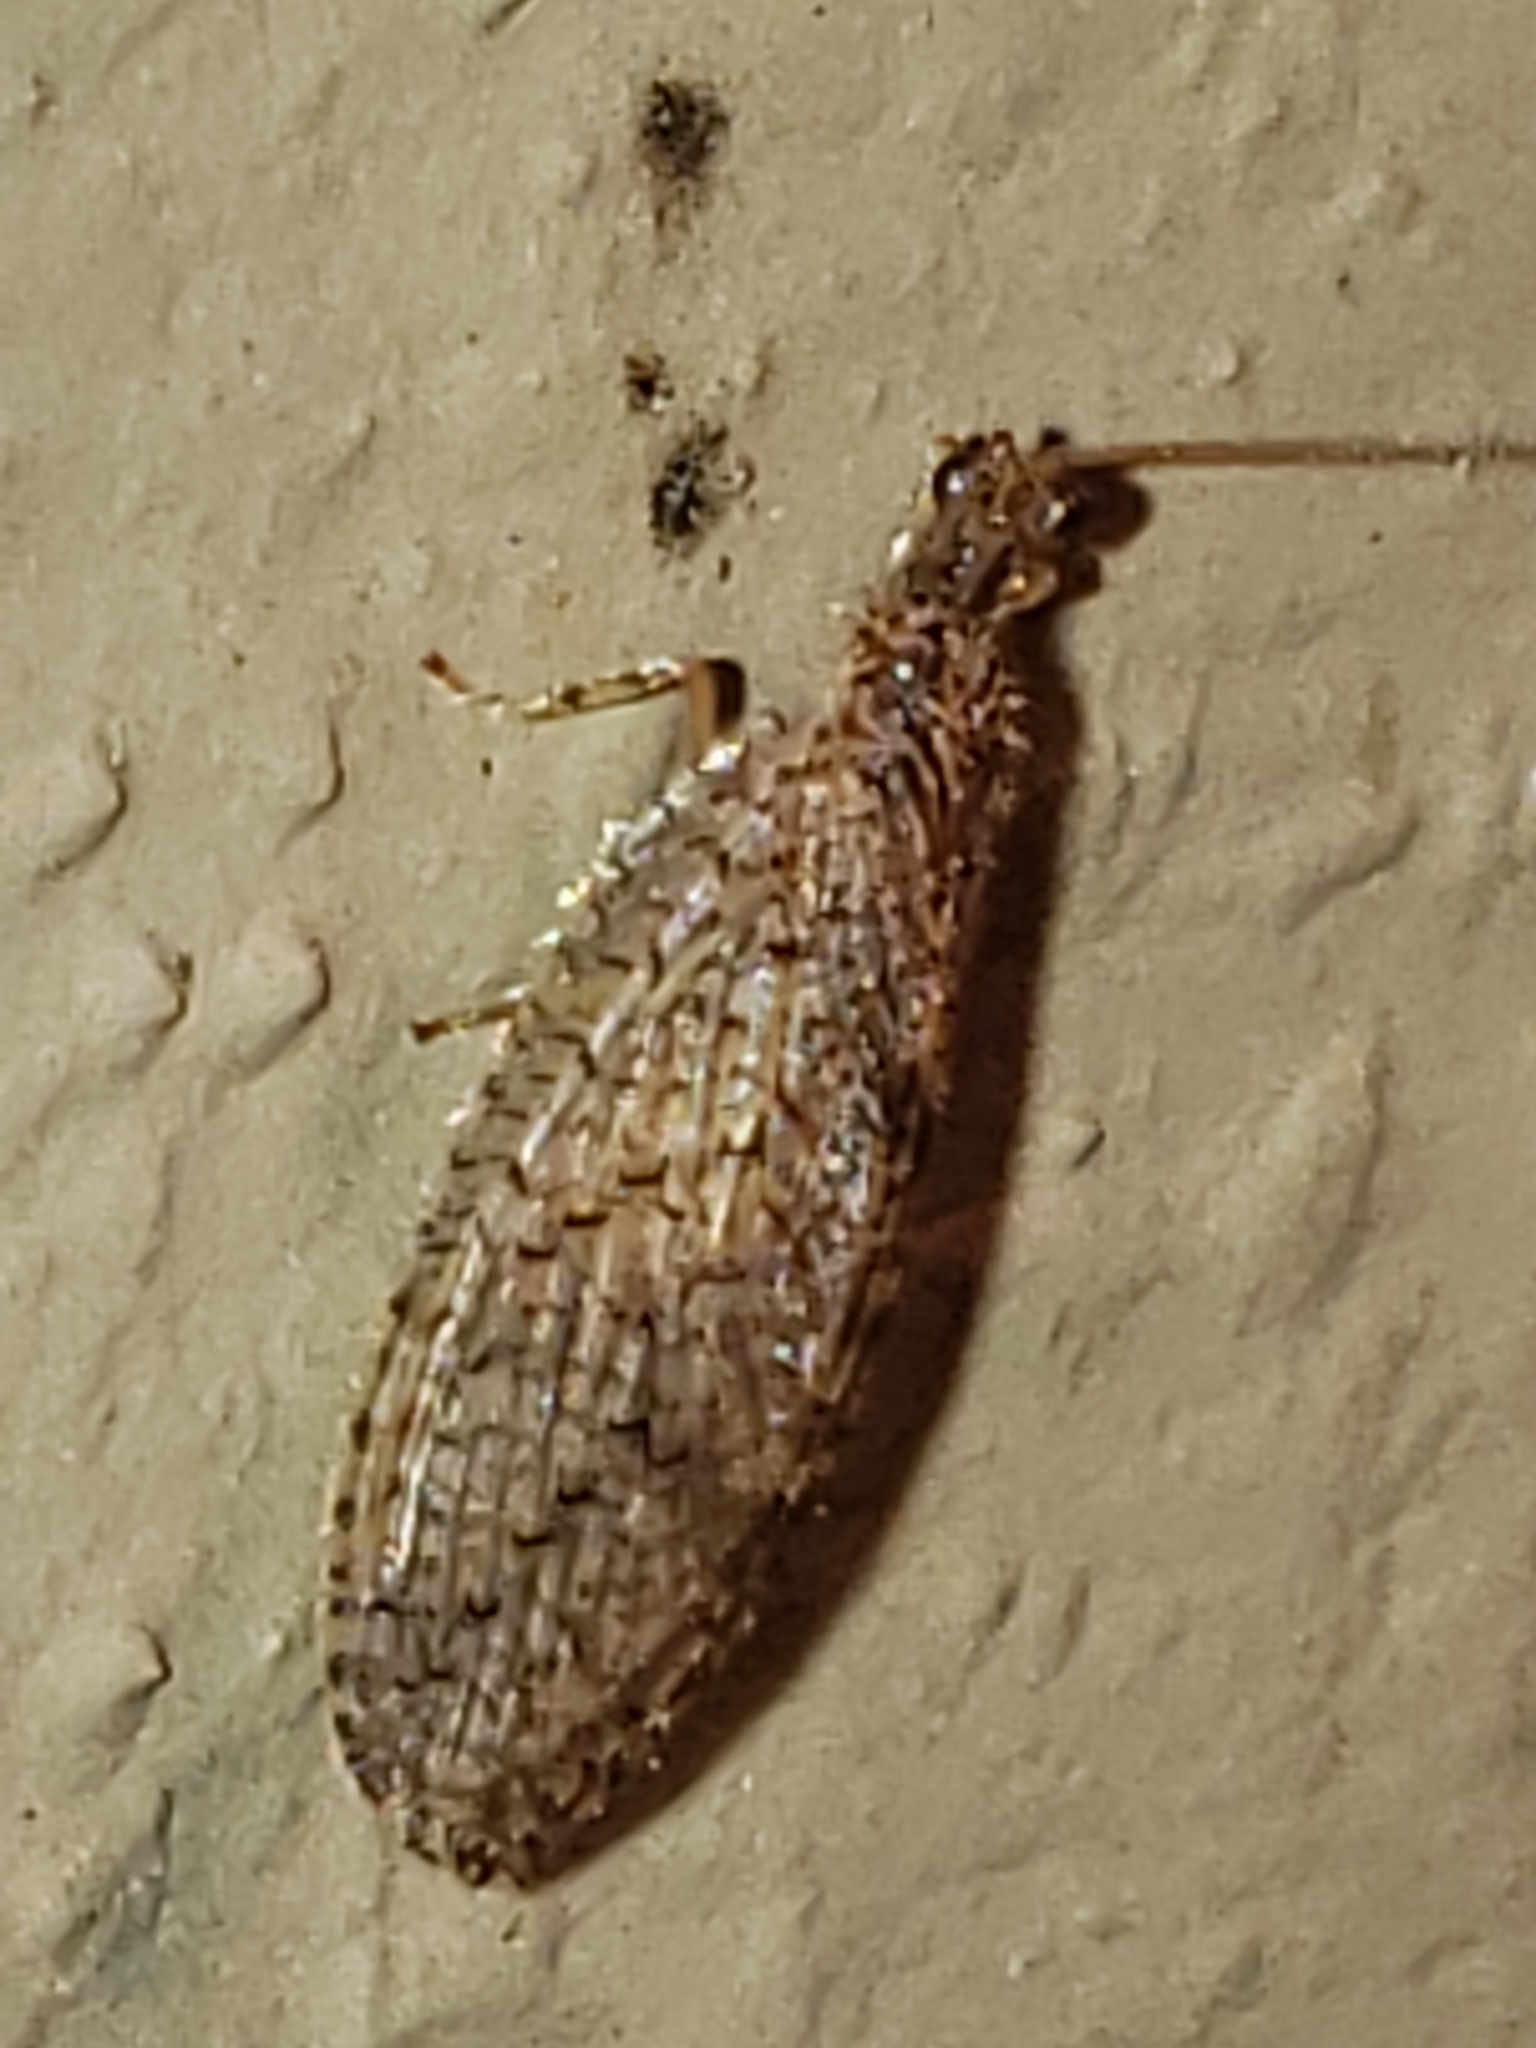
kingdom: Animalia
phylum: Arthropoda
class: Insecta
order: Neuroptera
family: Hemerobiidae
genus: Micromus
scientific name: Micromus posticus
